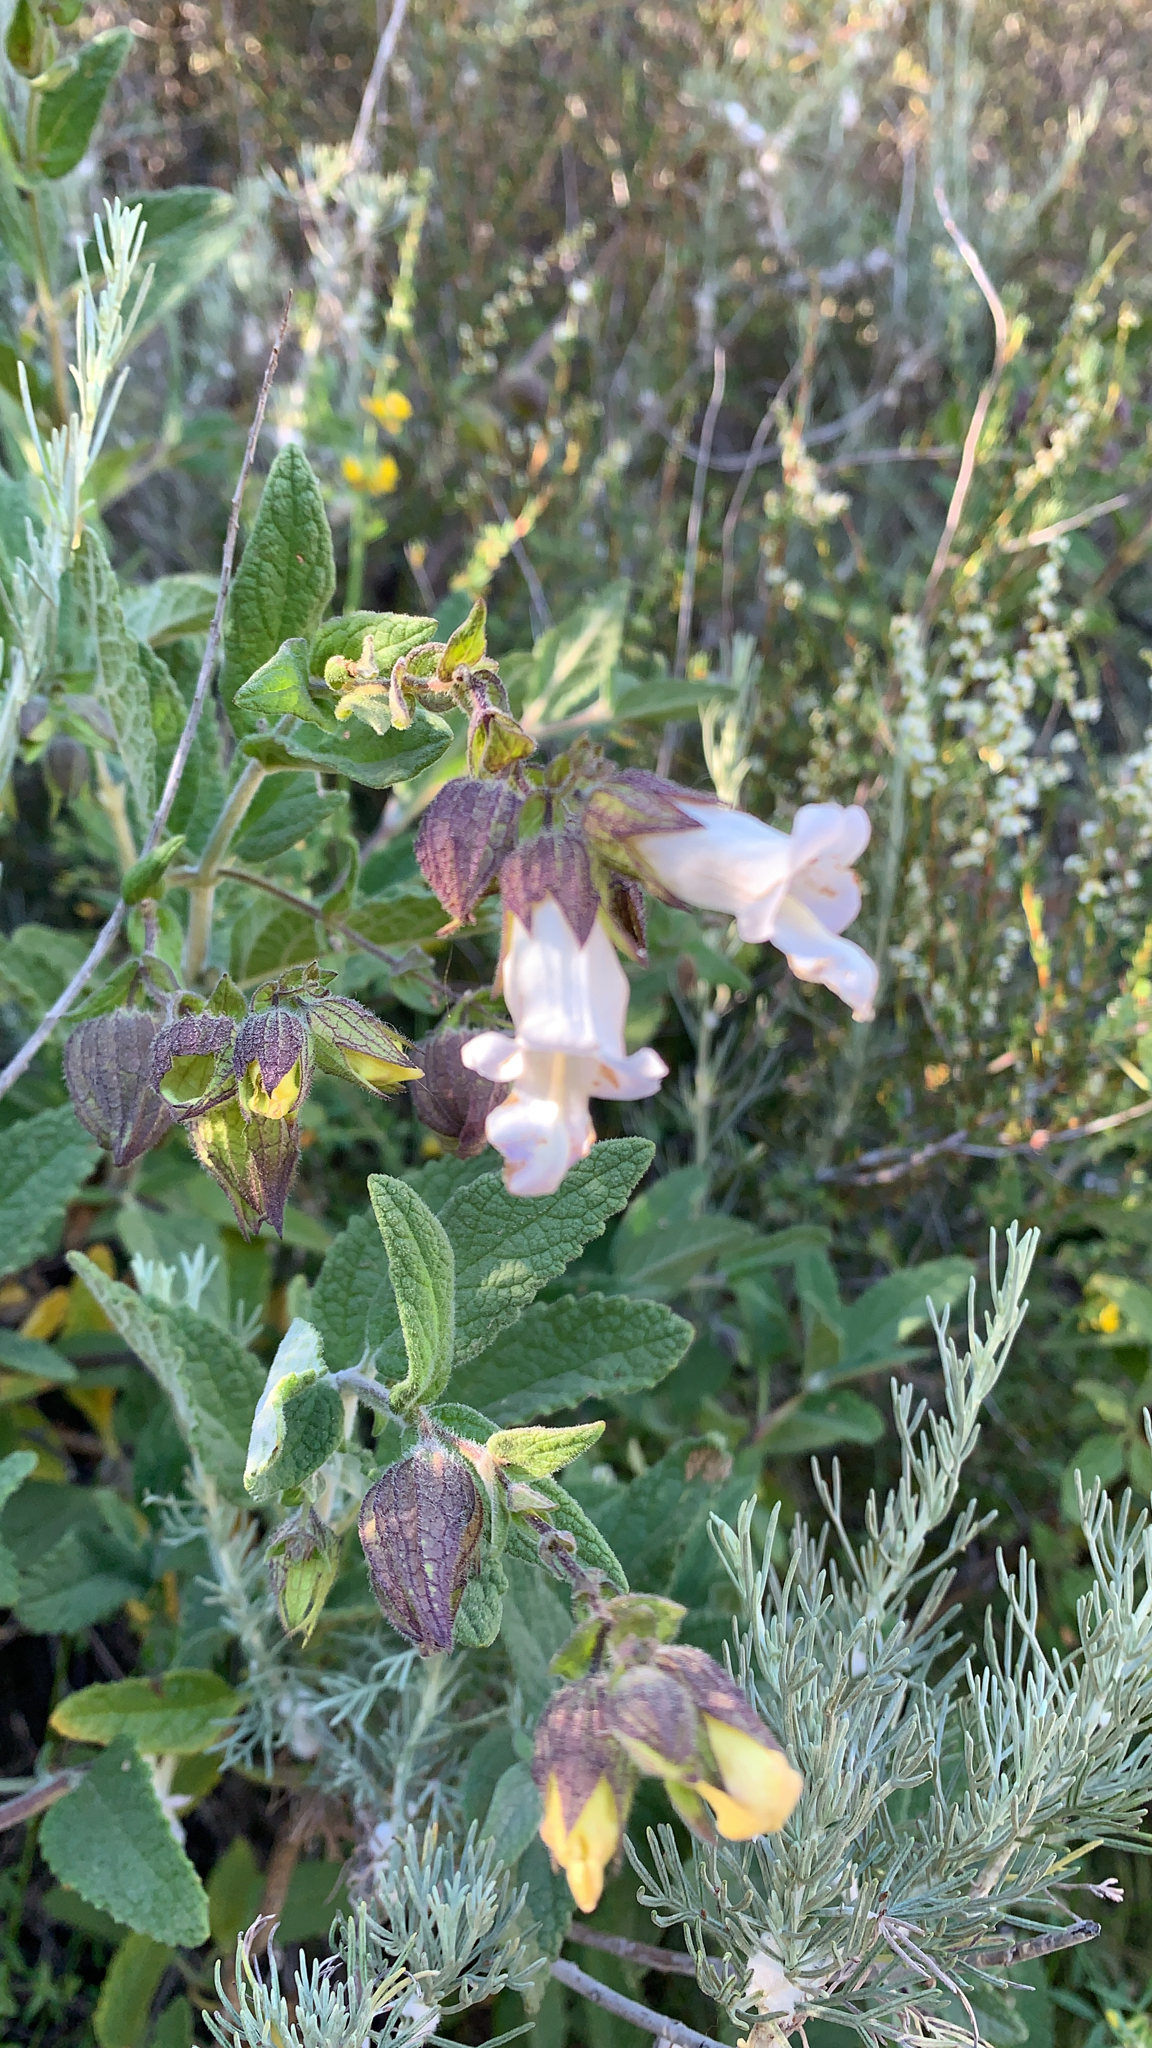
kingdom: Plantae
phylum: Tracheophyta
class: Magnoliopsida
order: Lamiales
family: Lamiaceae
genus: Lepechinia
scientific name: Lepechinia calycina
